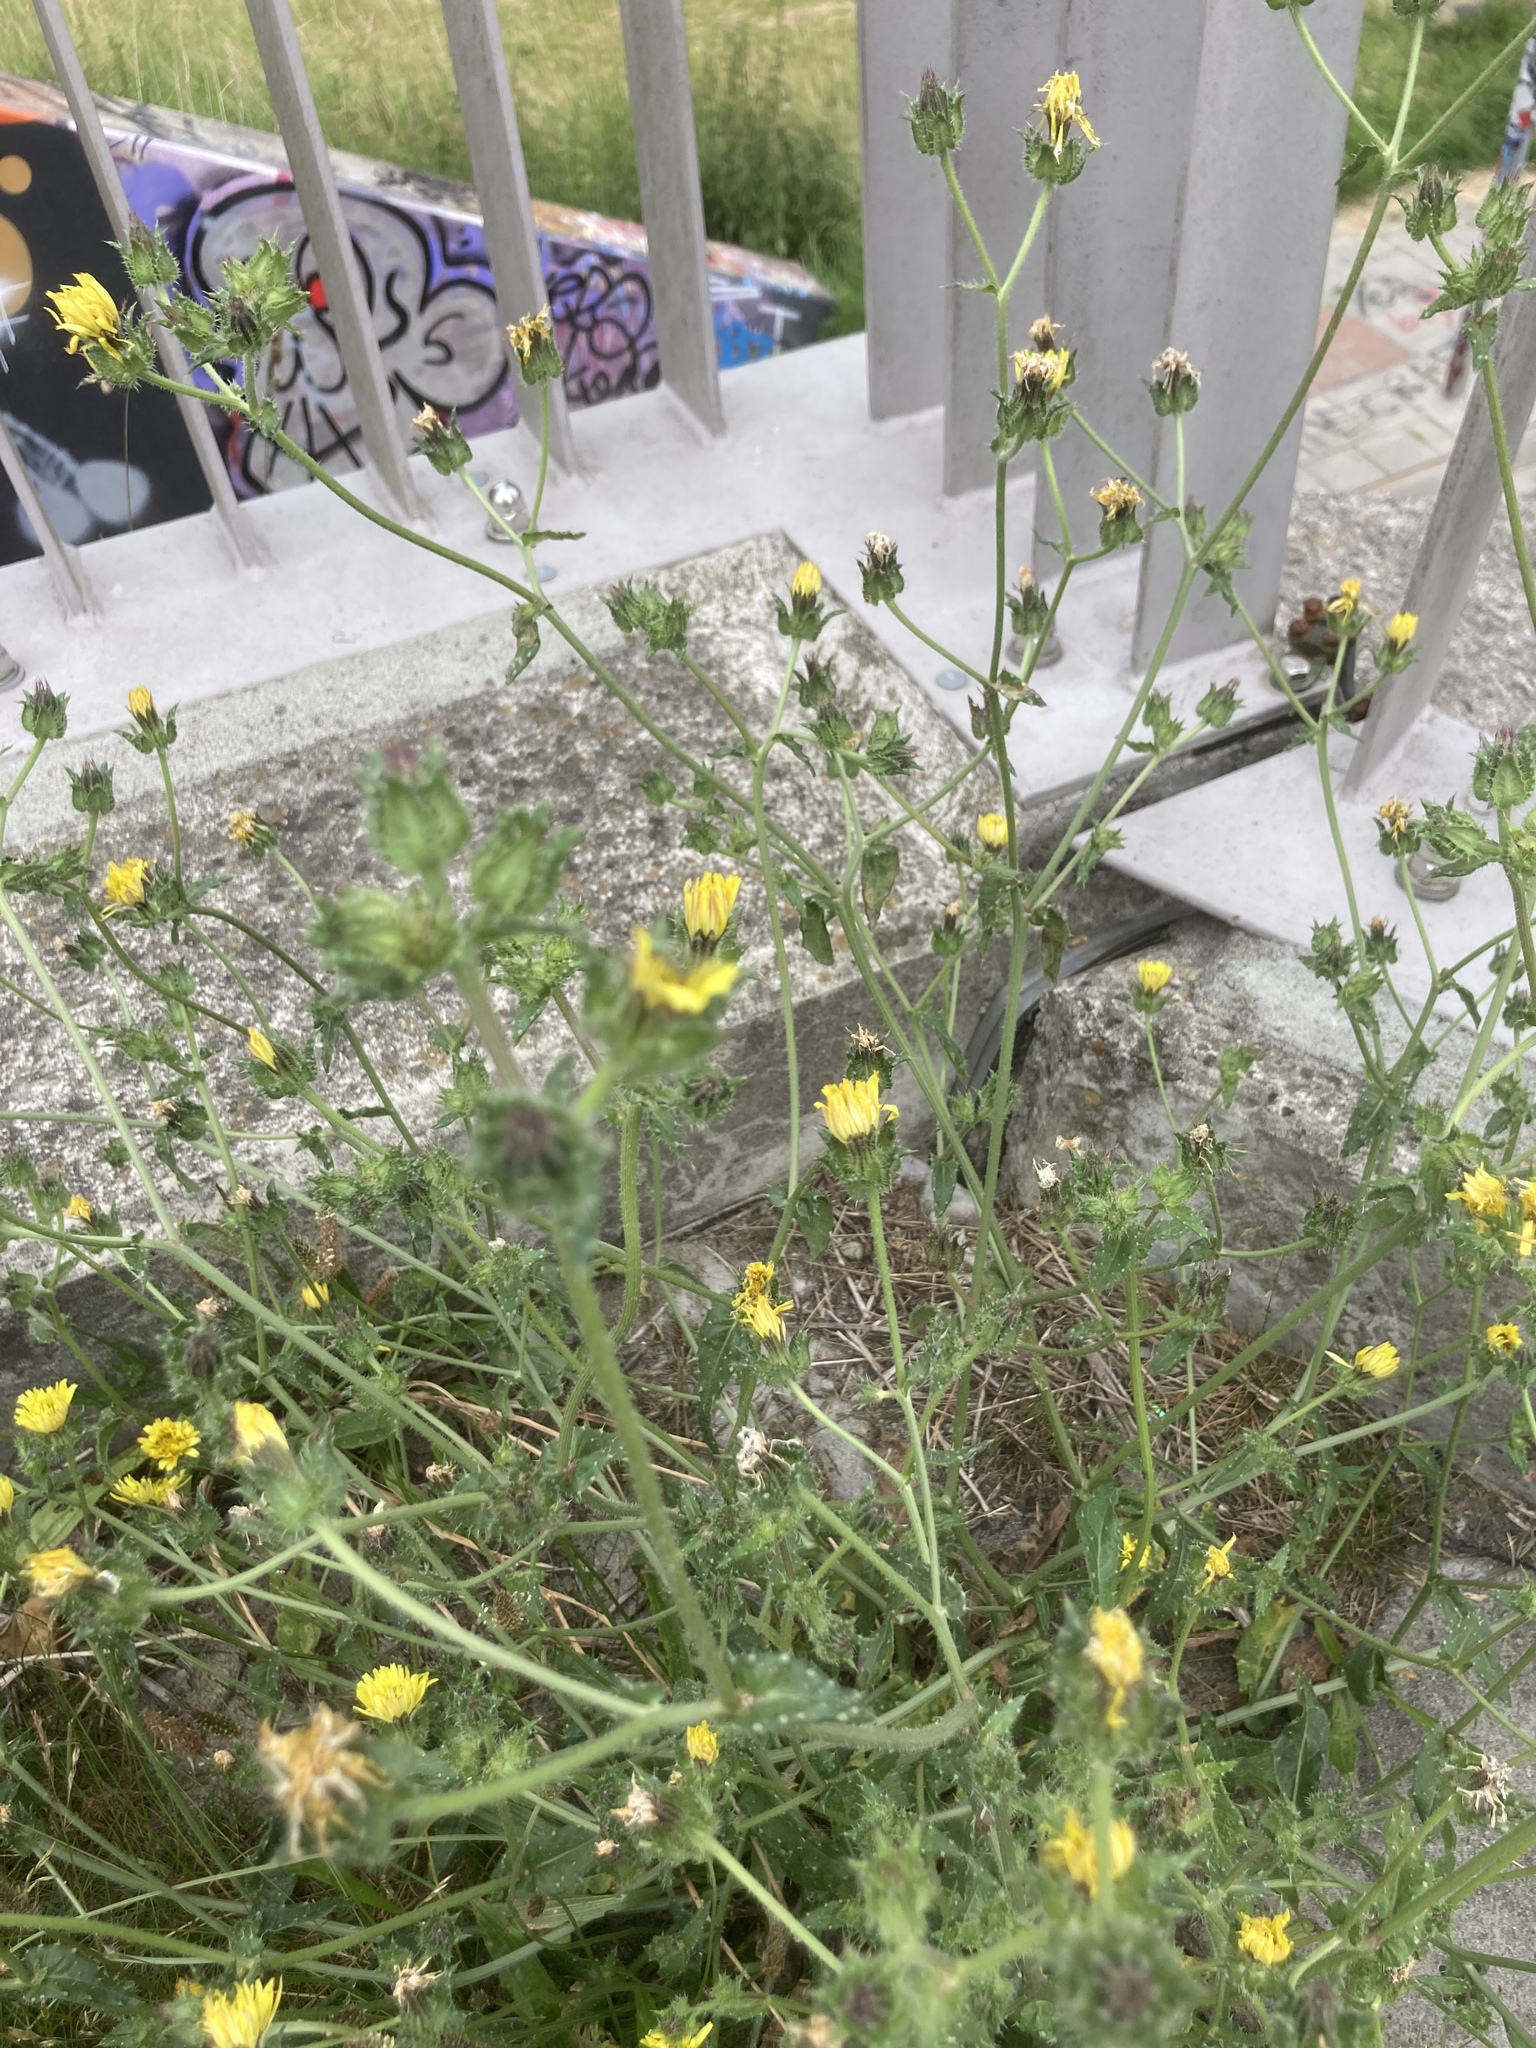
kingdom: Plantae
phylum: Tracheophyta
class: Magnoliopsida
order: Asterales
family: Asteraceae
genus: Helminthotheca
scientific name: Helminthotheca echioides
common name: Ox-tongue
